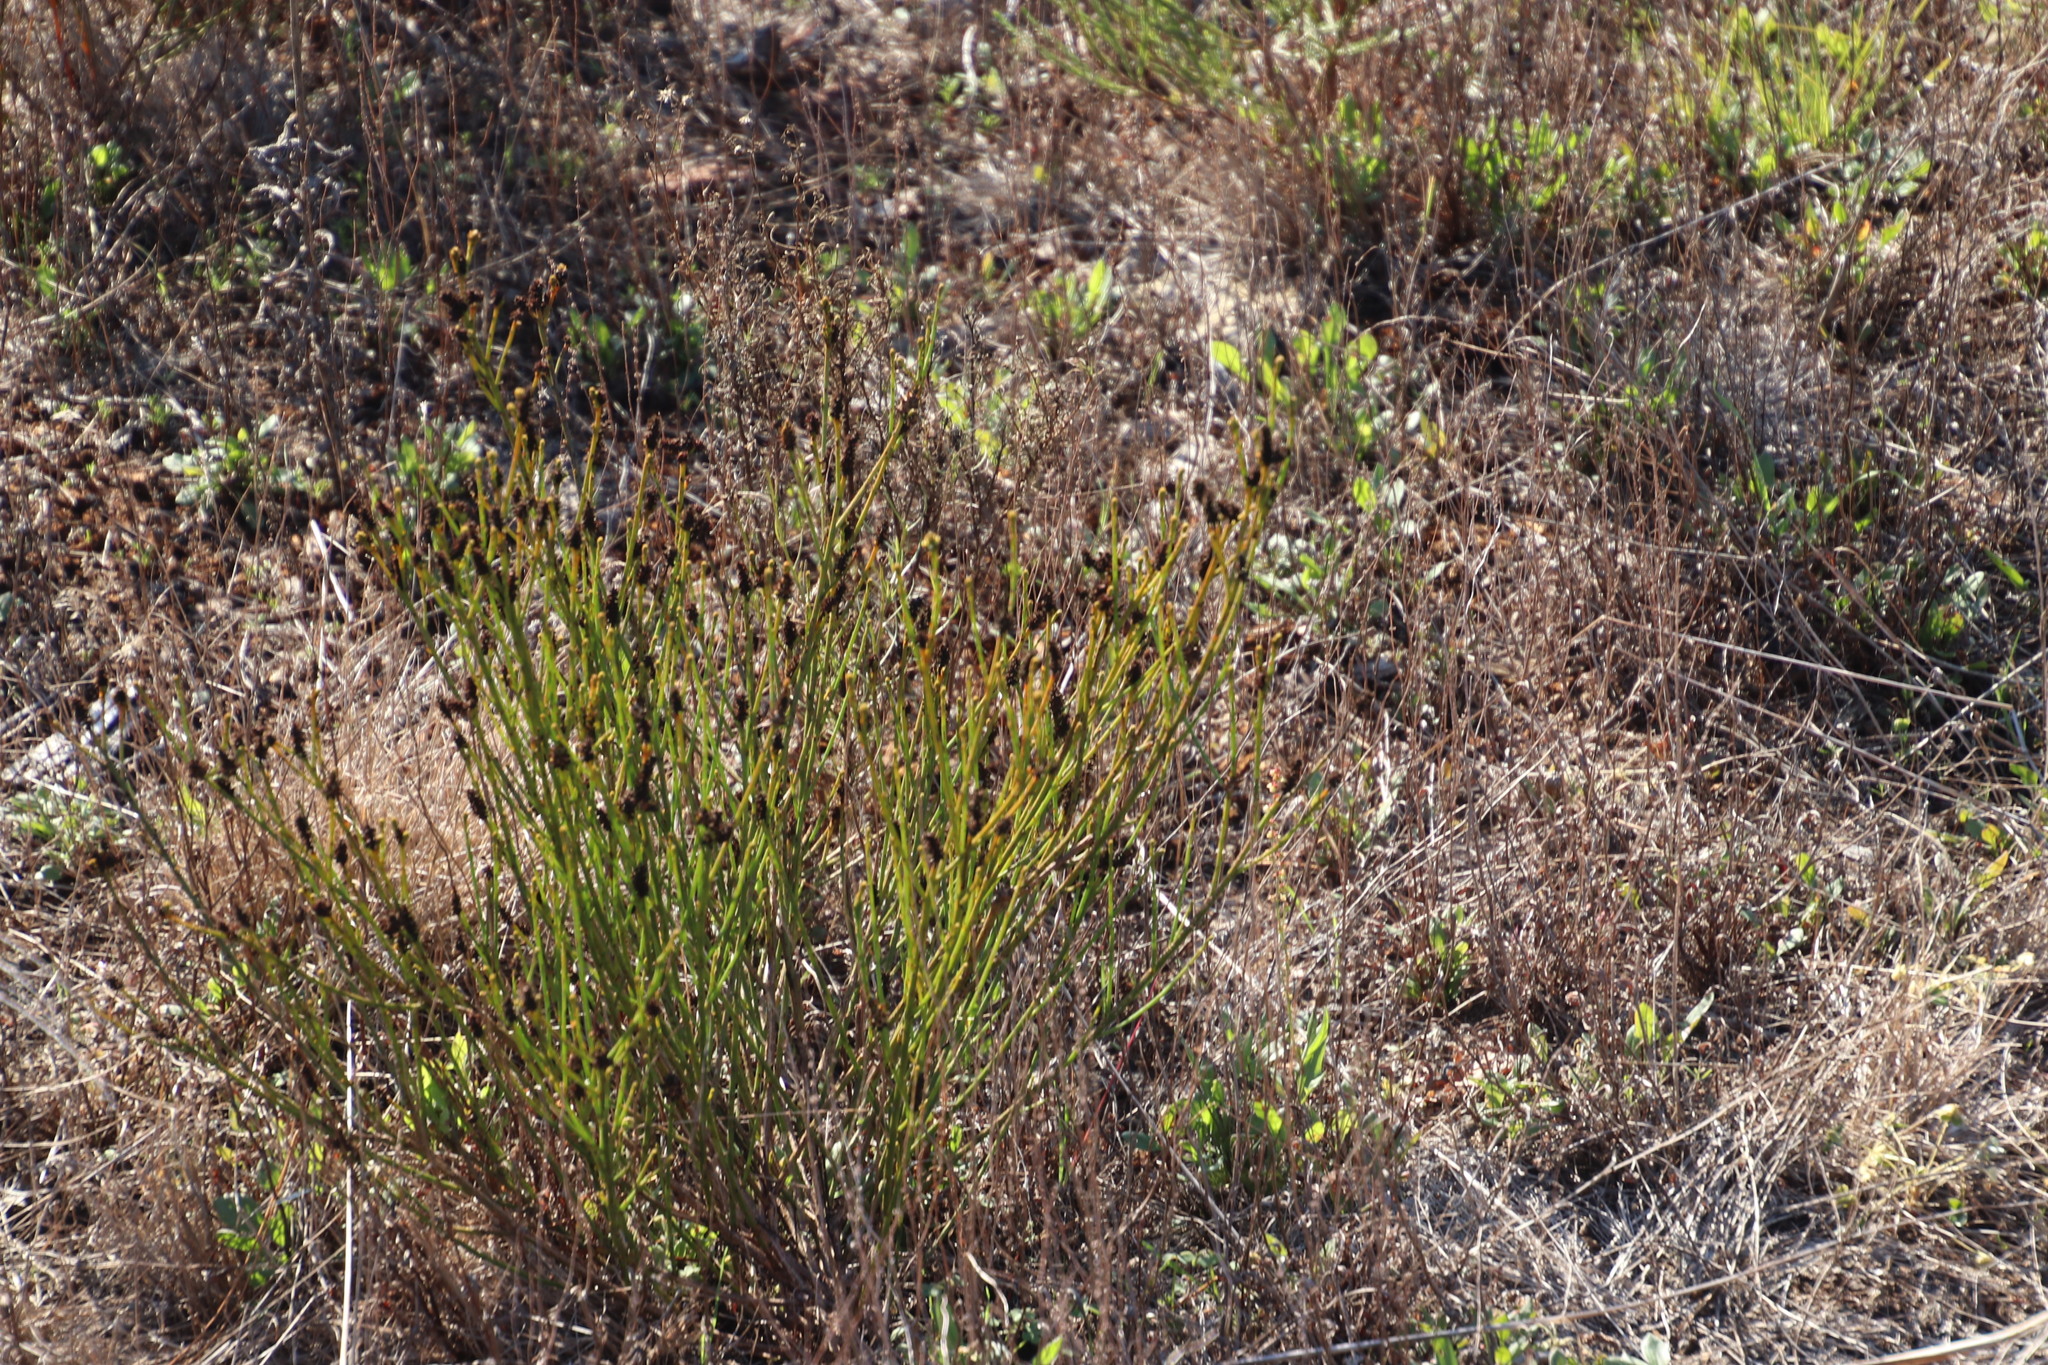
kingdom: Plantae
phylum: Tracheophyta
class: Magnoliopsida
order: Santalales
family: Thesiaceae
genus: Thesium
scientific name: Thesium aggregatum
